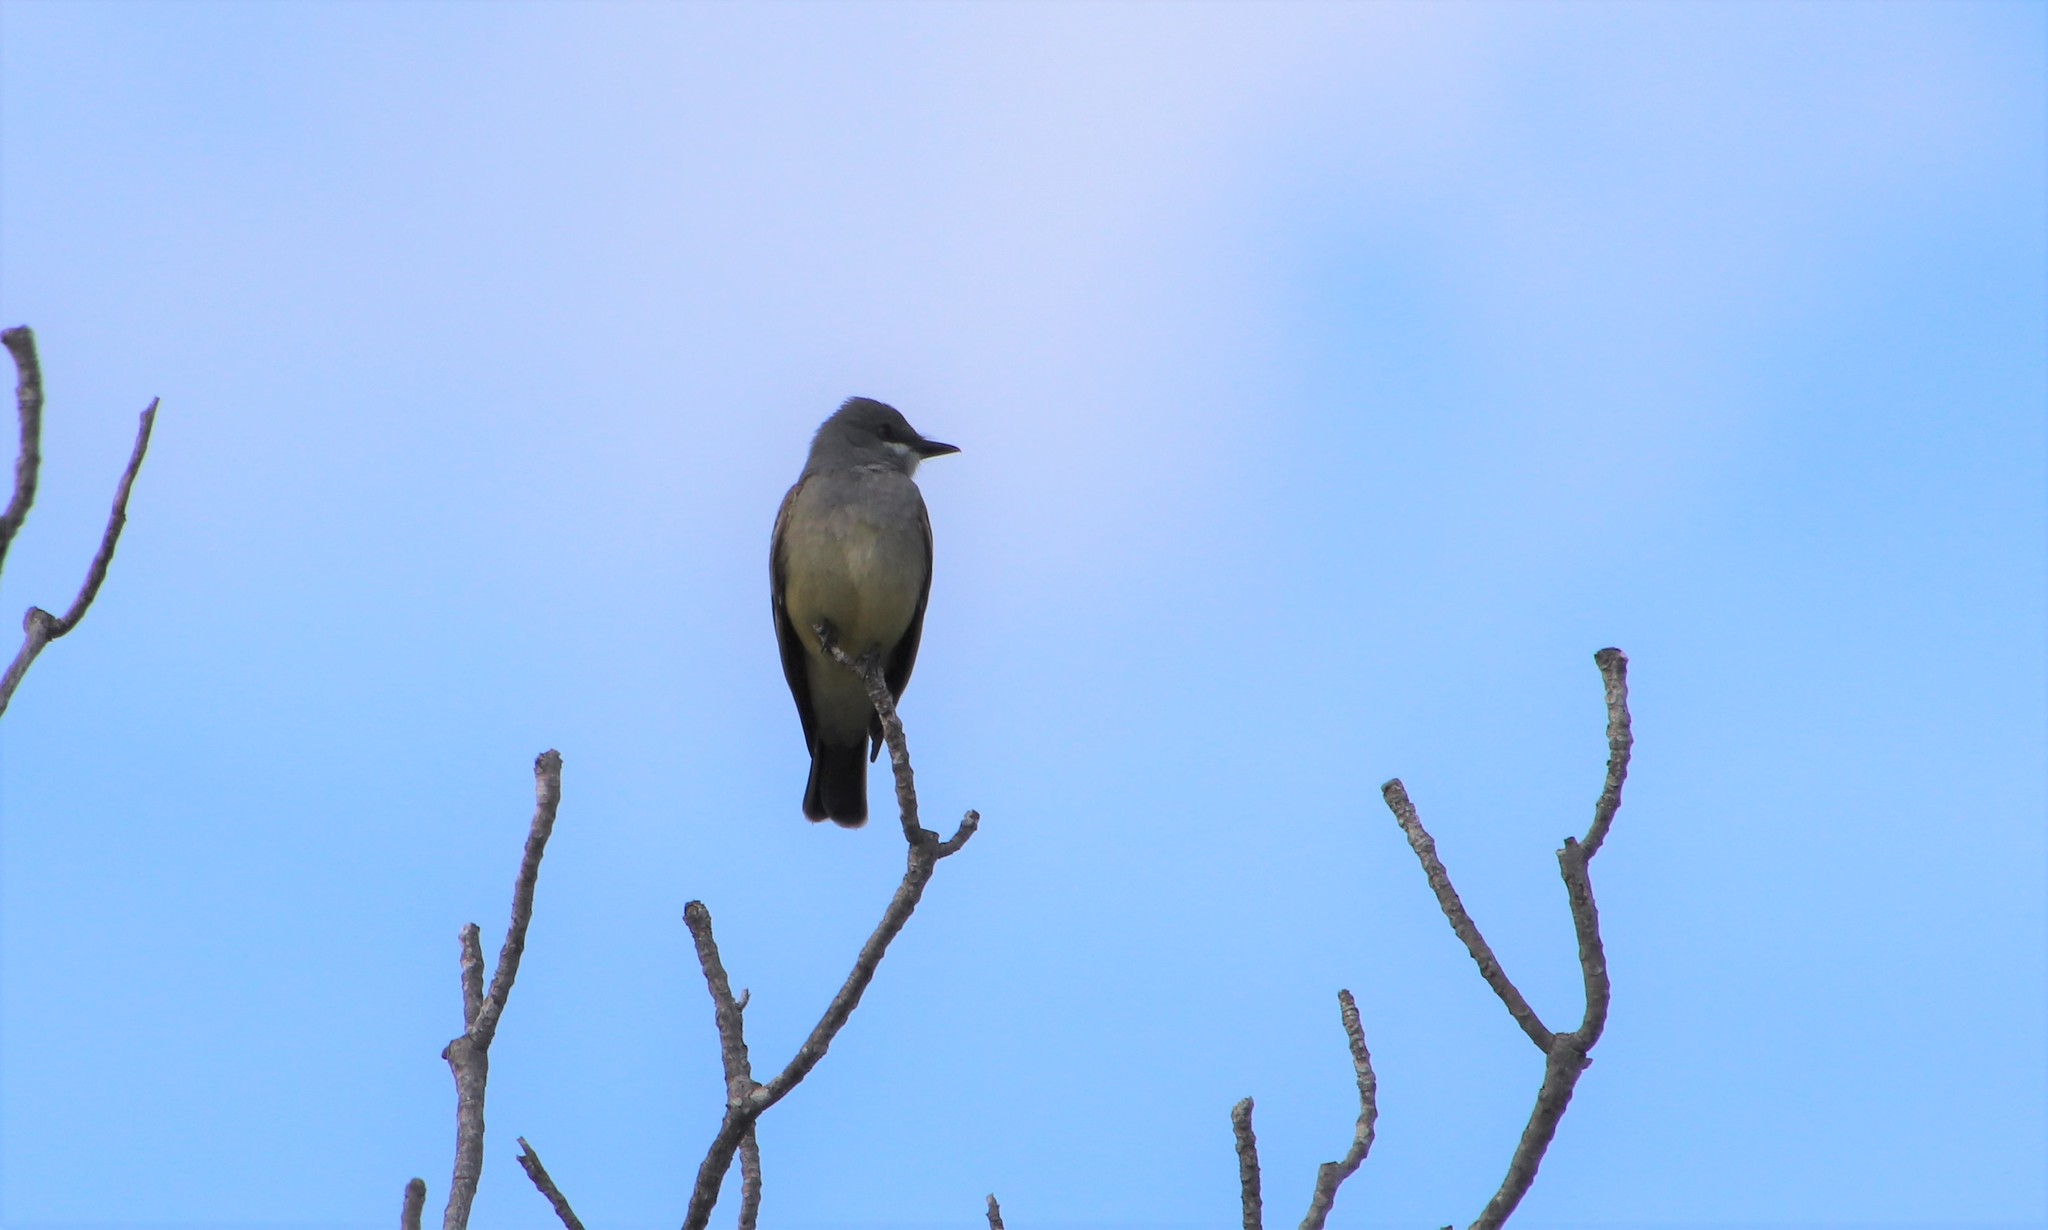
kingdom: Animalia
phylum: Chordata
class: Aves
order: Passeriformes
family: Tyrannidae
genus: Tyrannus
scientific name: Tyrannus vociferans
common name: Cassin's kingbird
